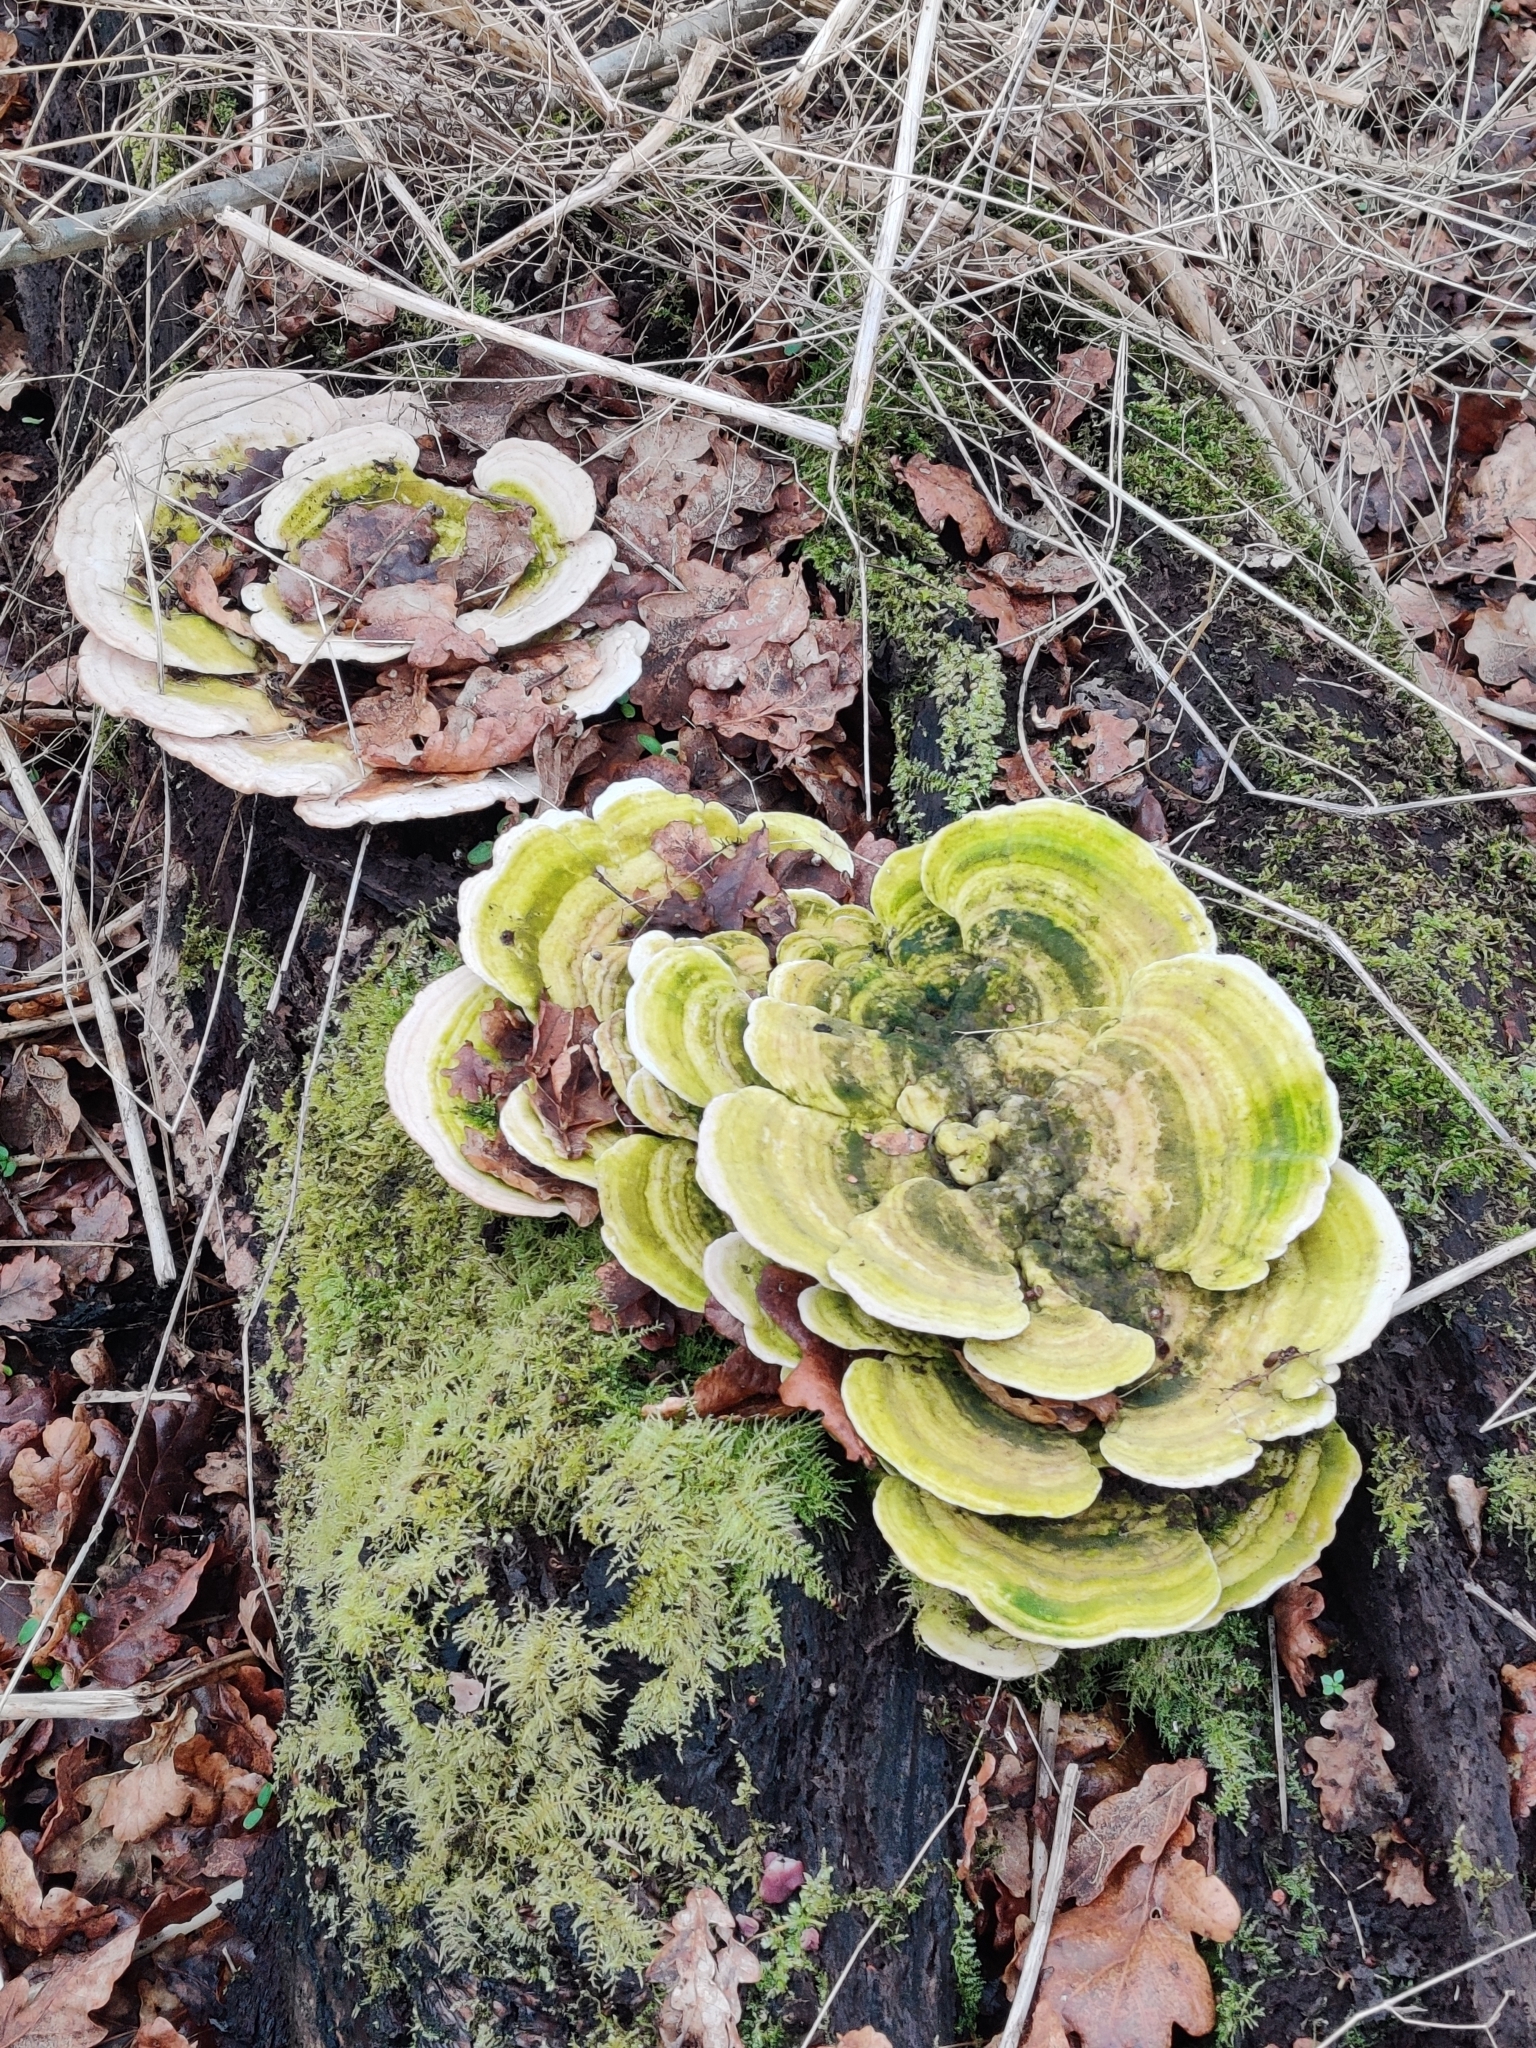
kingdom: Fungi
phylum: Basidiomycota
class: Agaricomycetes
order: Polyporales
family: Polyporaceae
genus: Trametes
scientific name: Trametes gibbosa
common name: Lumpy bracket
